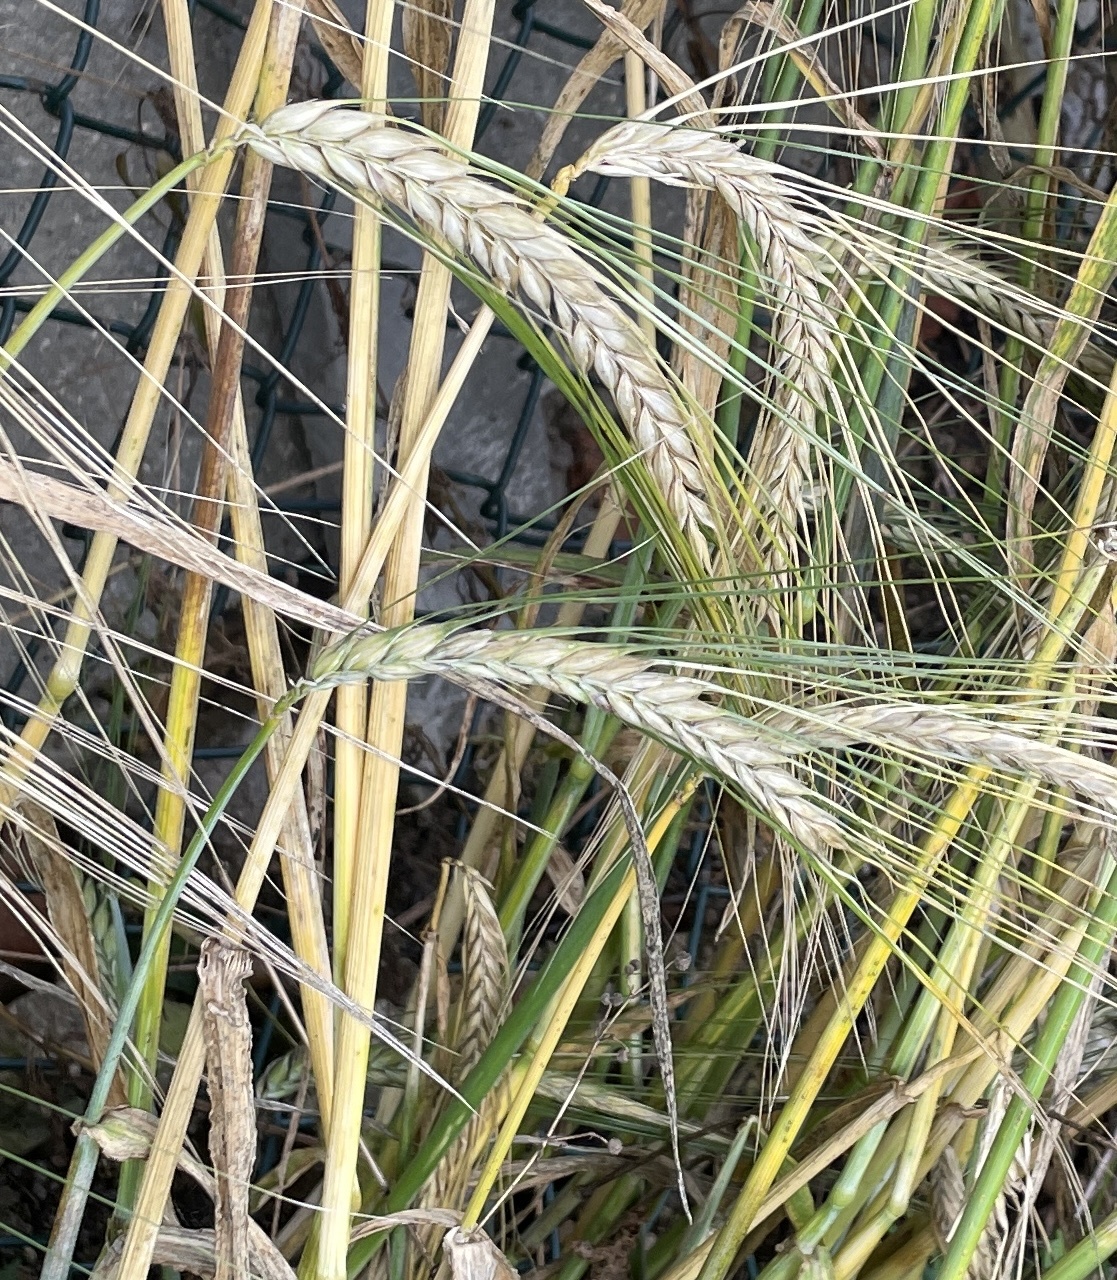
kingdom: Plantae
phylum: Tracheophyta
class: Liliopsida
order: Poales
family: Poaceae
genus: Hordeum
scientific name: Hordeum vulgare
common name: Common barley
